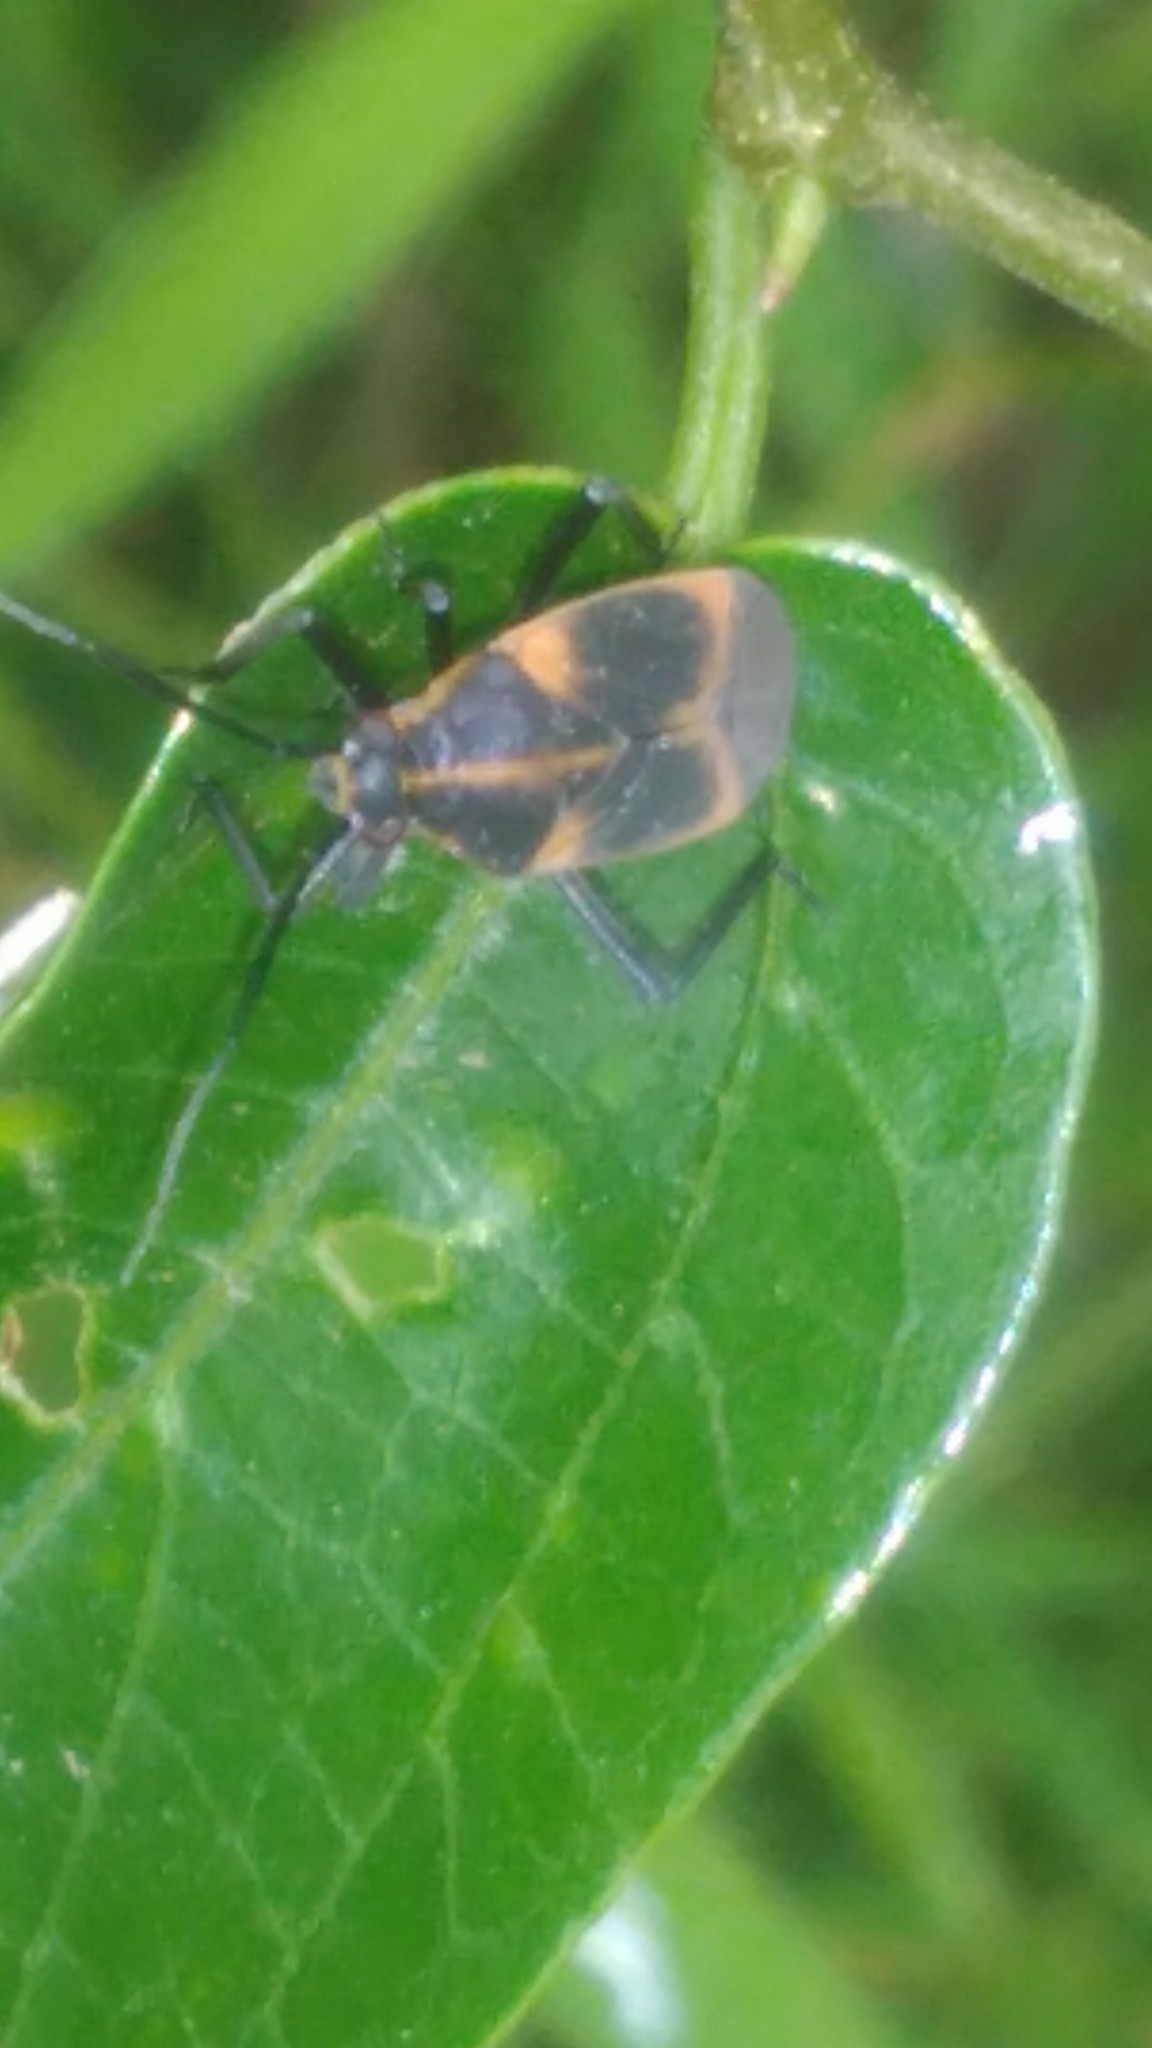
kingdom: Animalia
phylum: Arthropoda
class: Insecta
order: Hemiptera
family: Miridae
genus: Prepops
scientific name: Prepops platensis
